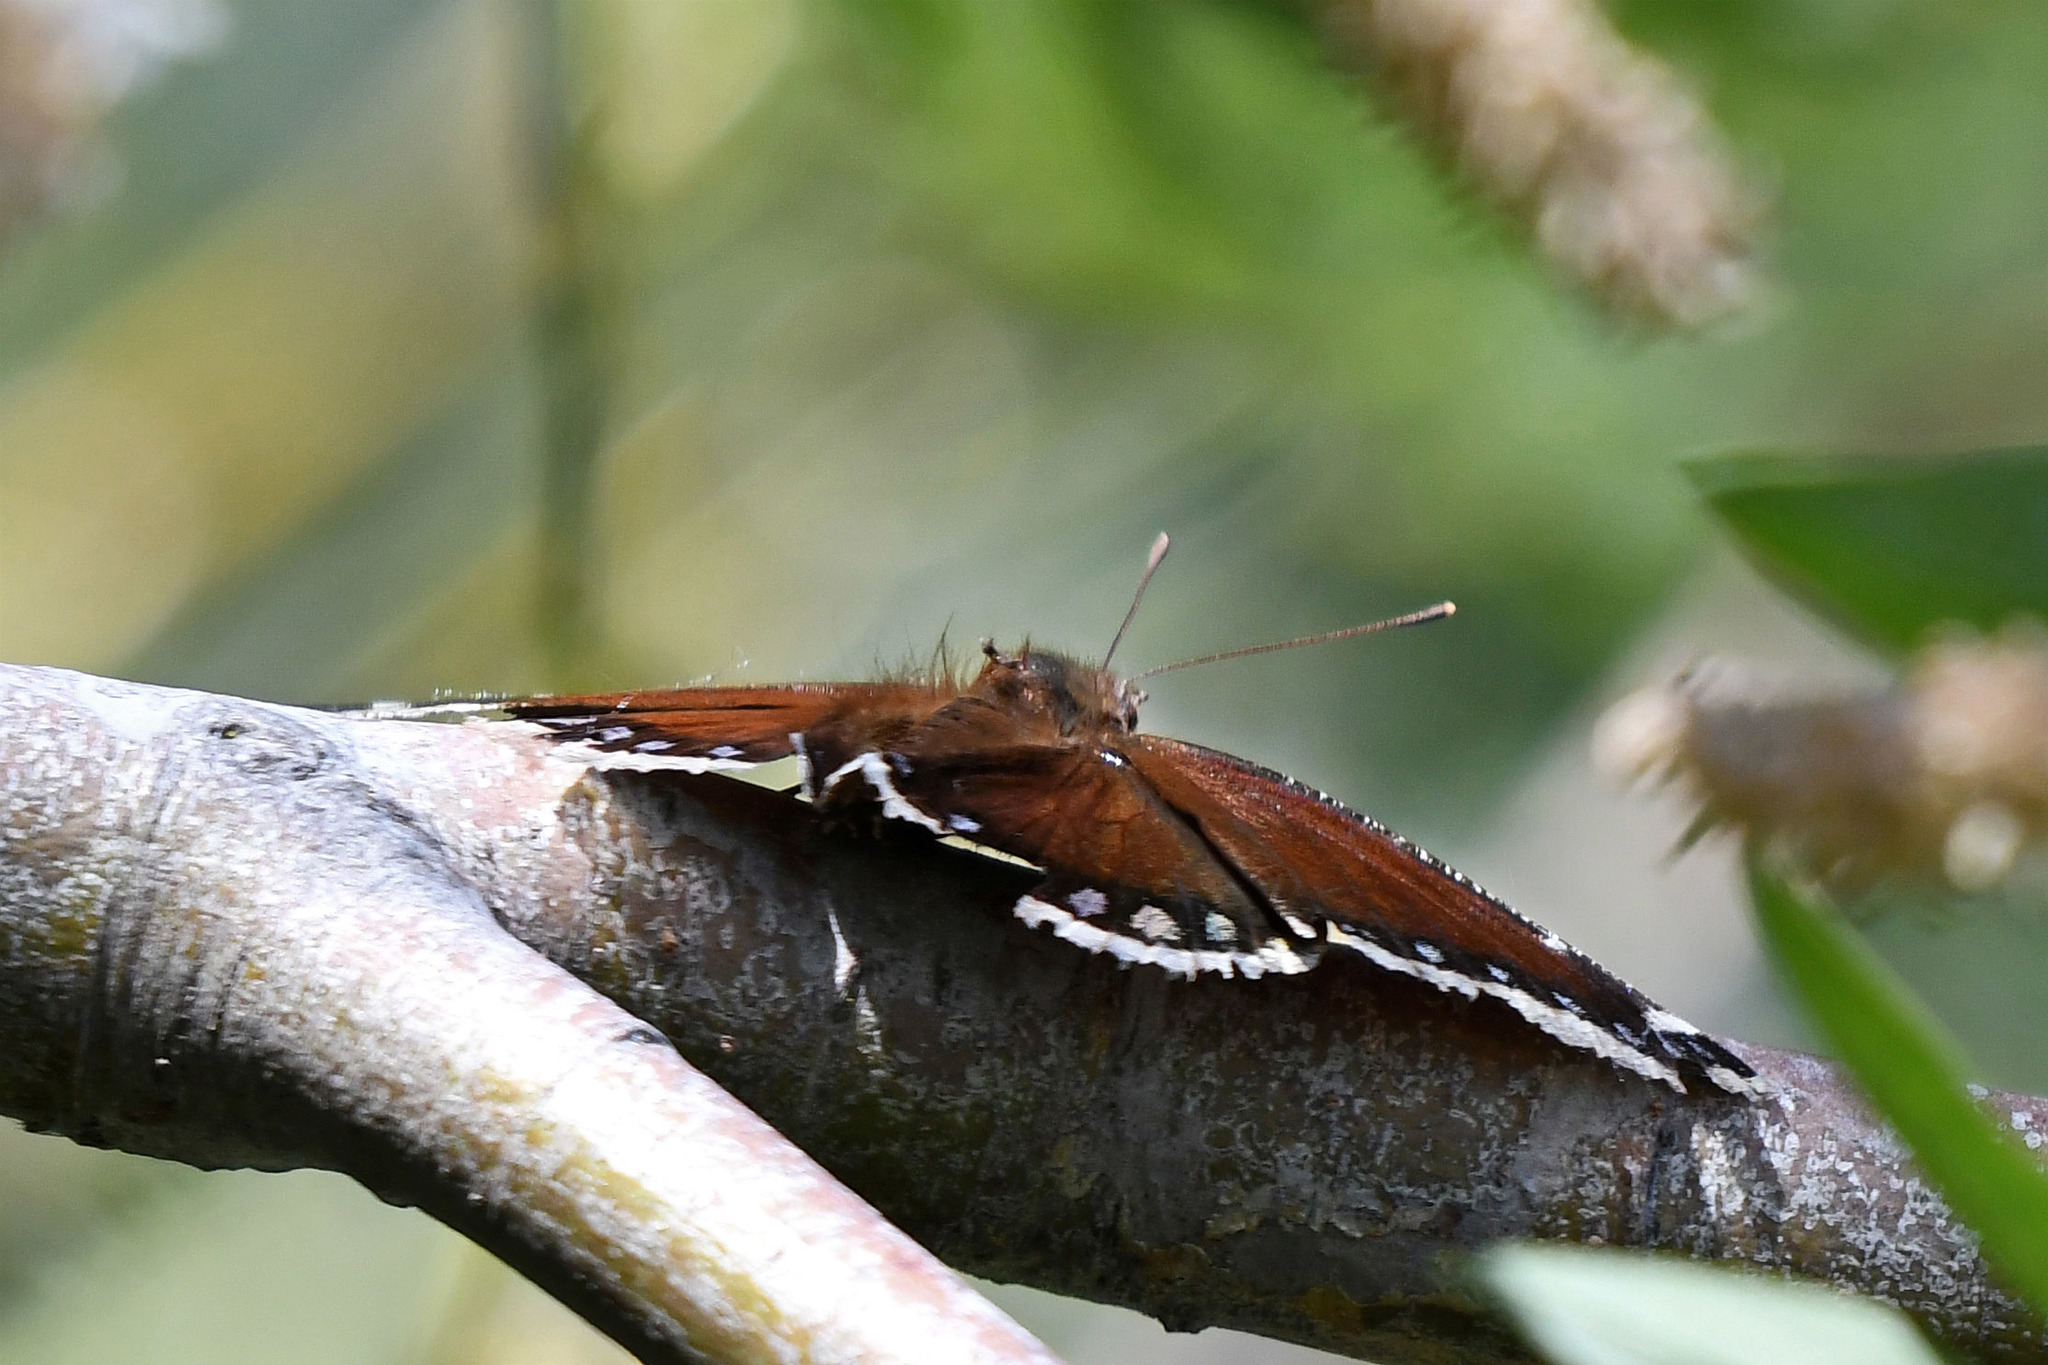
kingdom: Animalia
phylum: Arthropoda
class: Insecta
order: Lepidoptera
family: Nymphalidae
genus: Nymphalis
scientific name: Nymphalis antiopa
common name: Camberwell beauty
